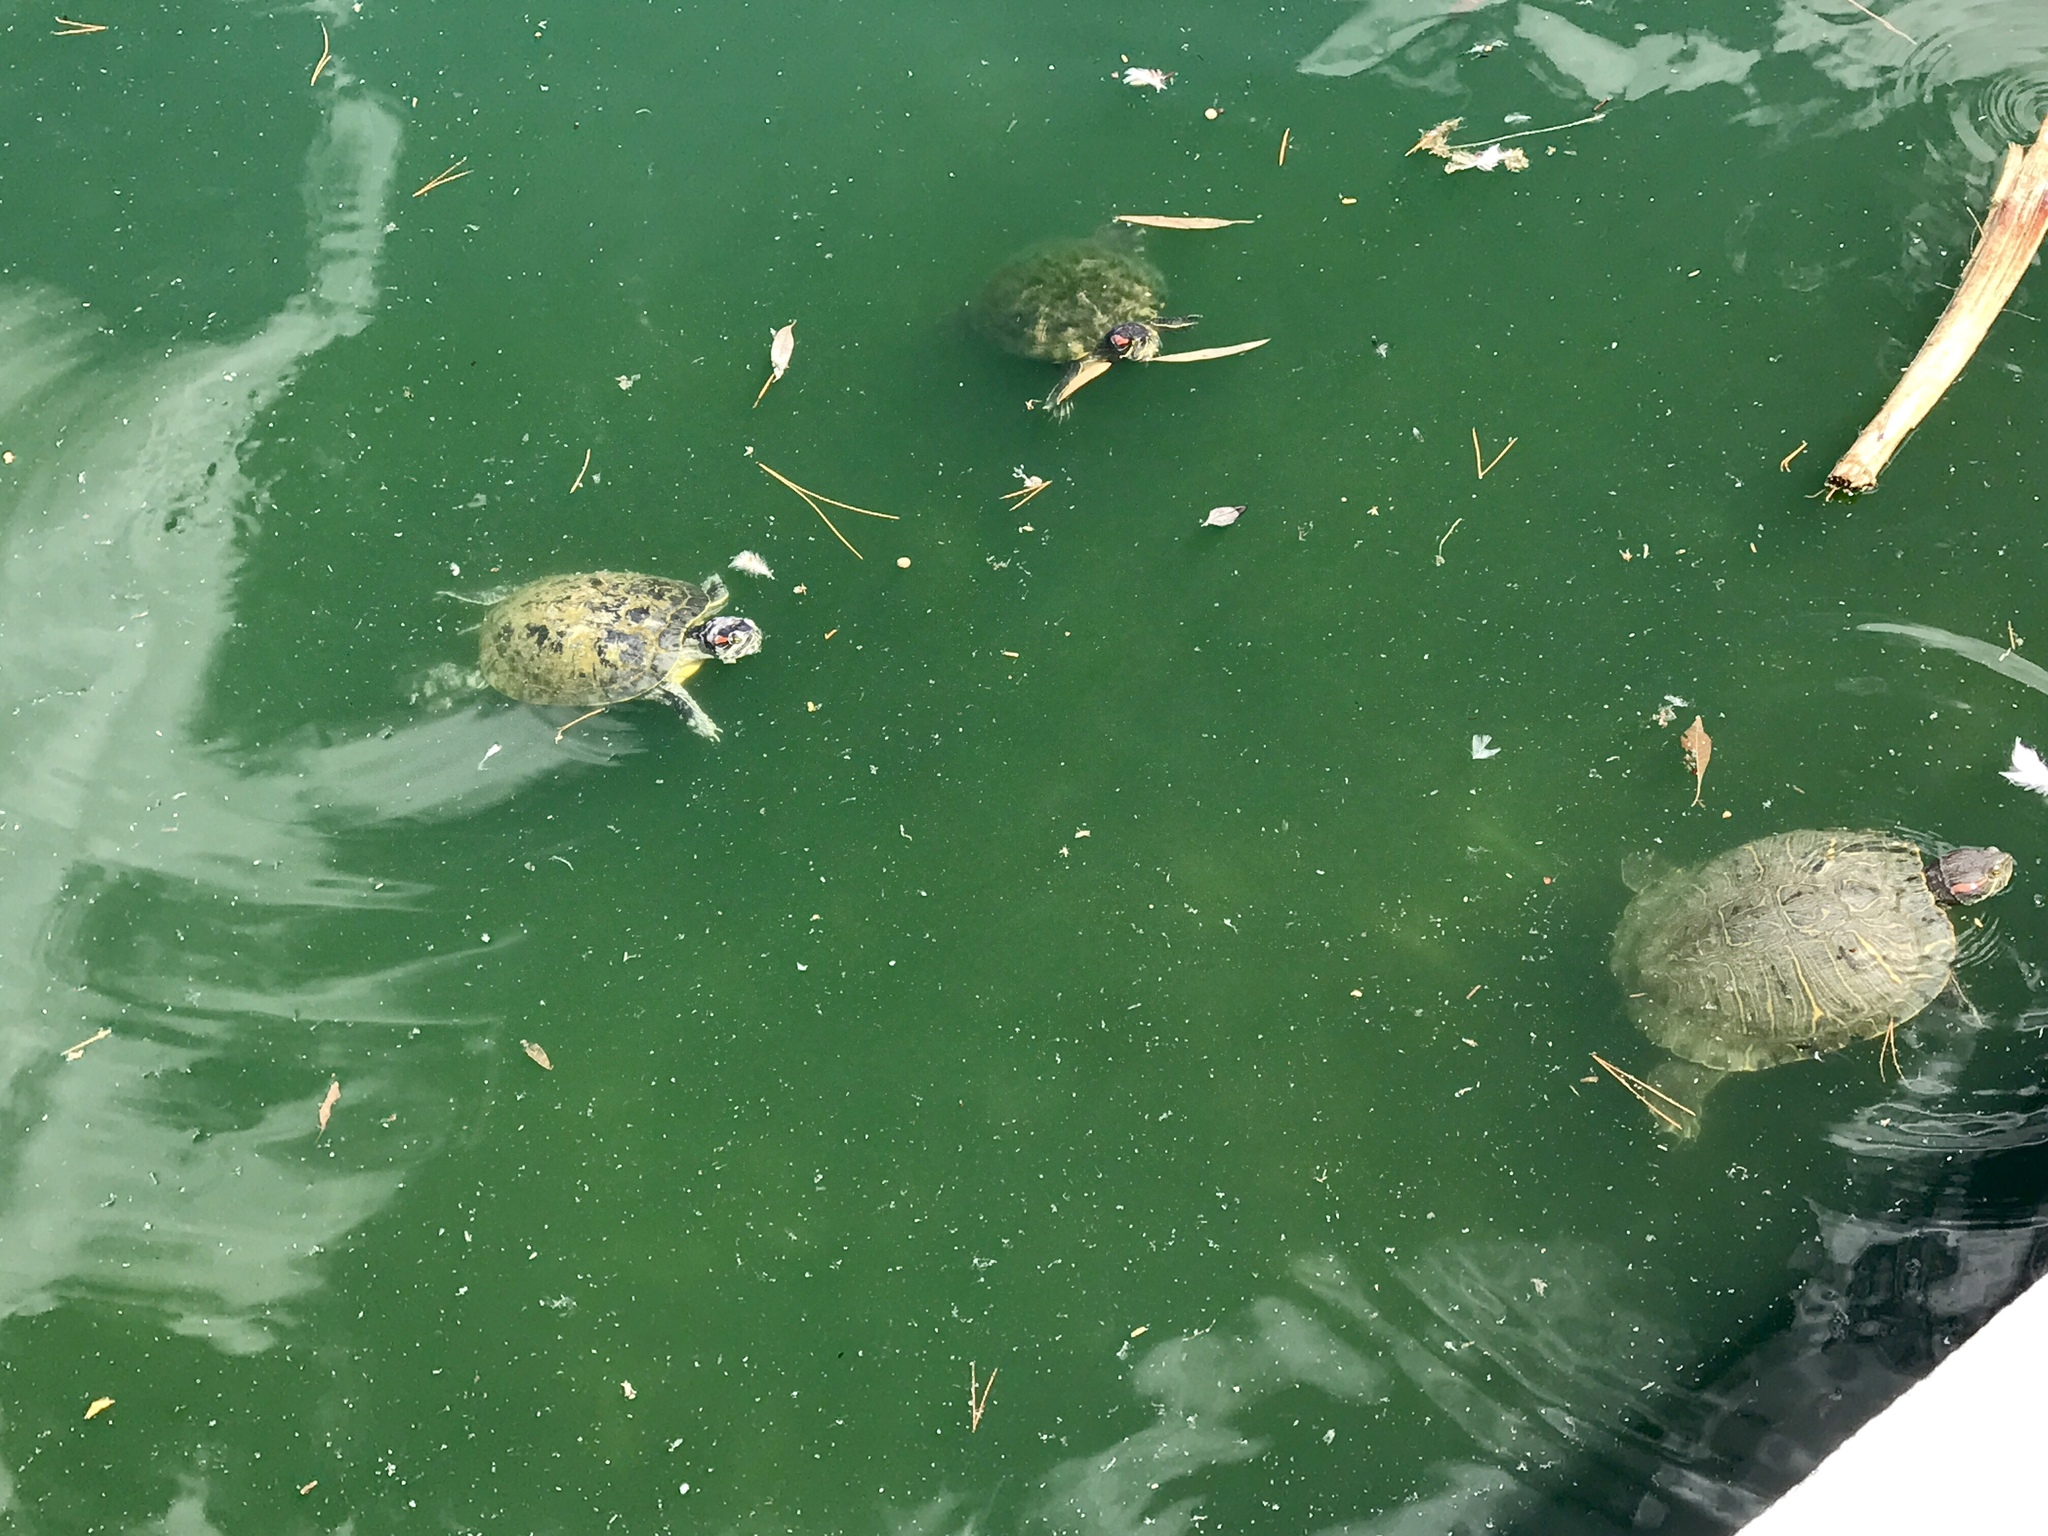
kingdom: Animalia
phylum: Chordata
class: Testudines
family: Emydidae
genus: Trachemys
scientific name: Trachemys scripta
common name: Slider
